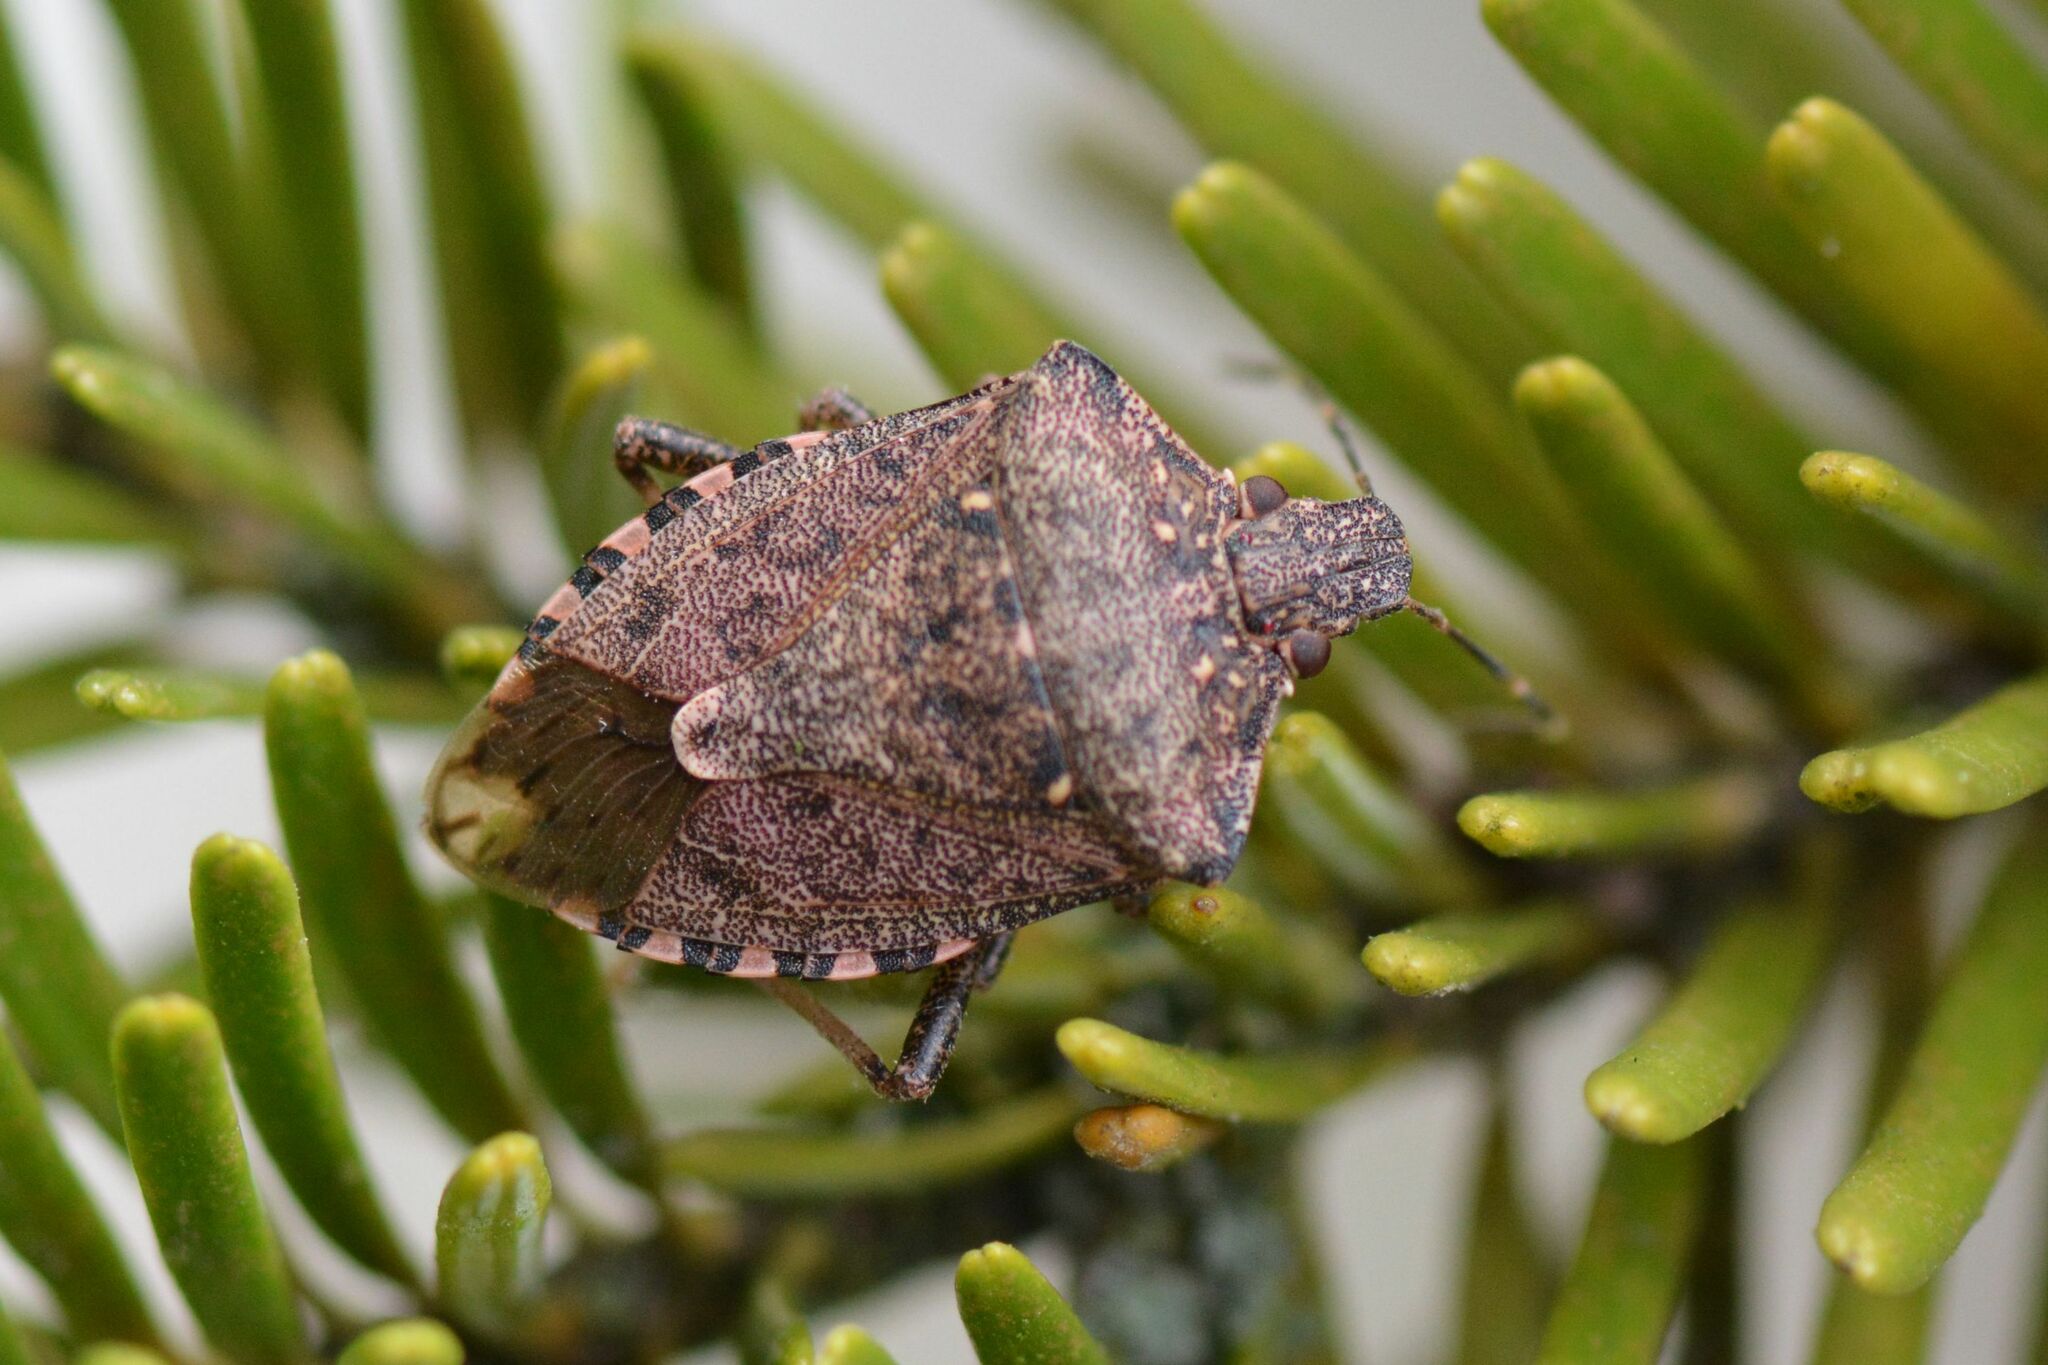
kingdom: Animalia
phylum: Arthropoda
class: Insecta
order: Hemiptera
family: Pentatomidae
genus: Halyomorpha
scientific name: Halyomorpha halys
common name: Brown marmorated stink bug
